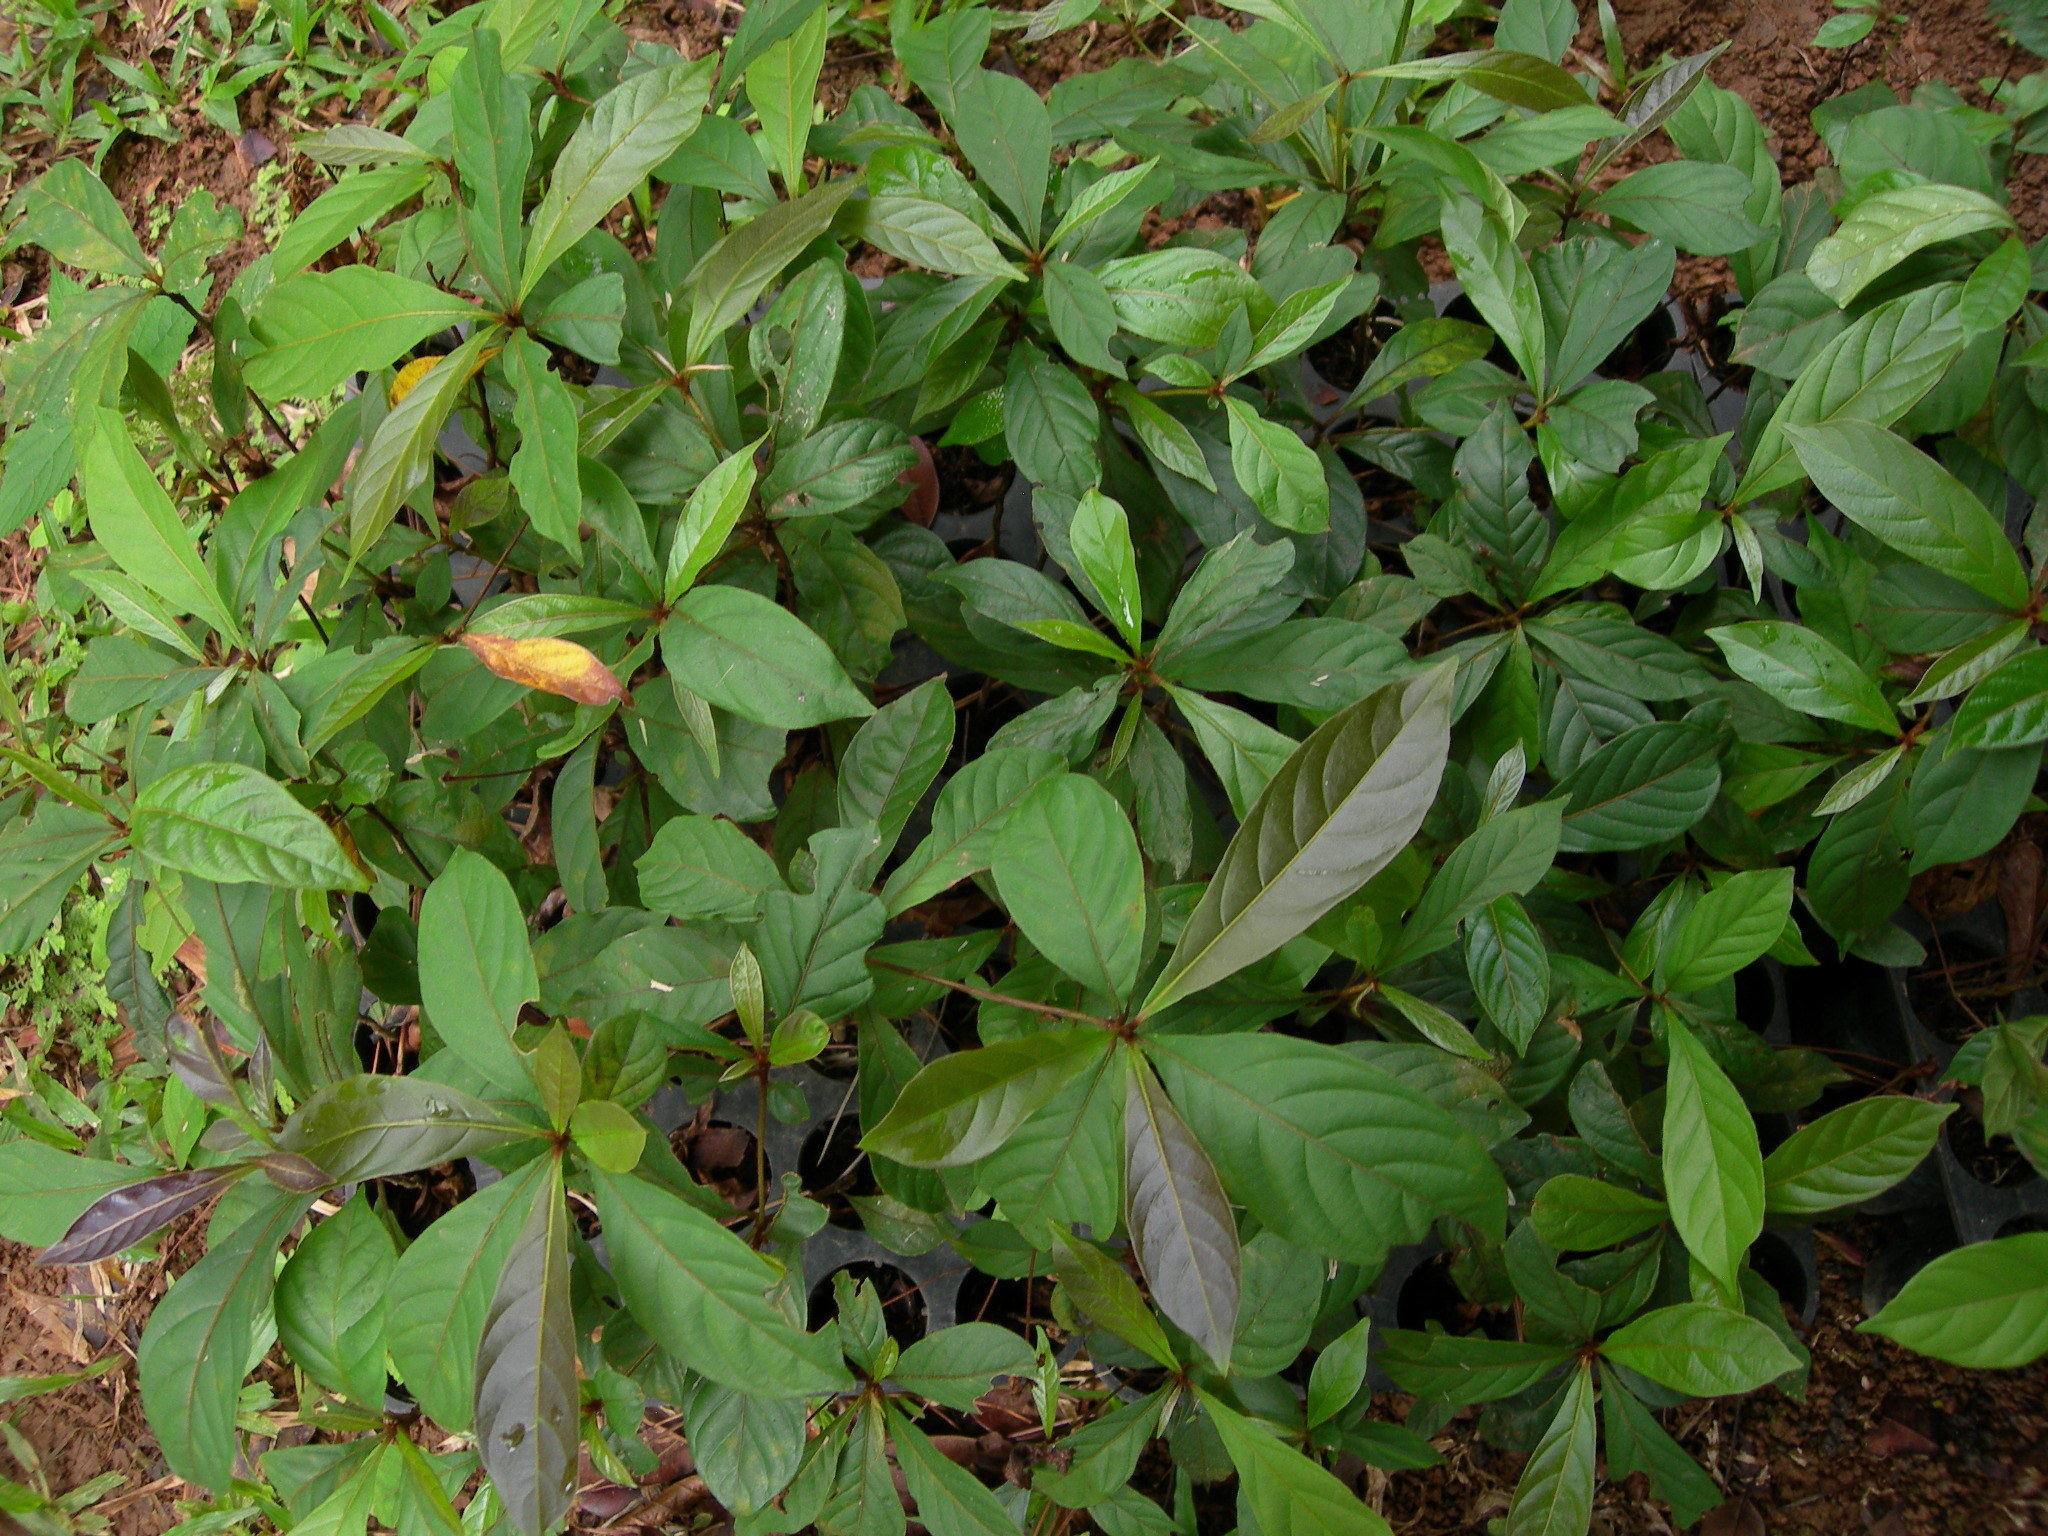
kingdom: Plantae
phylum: Tracheophyta
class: Magnoliopsida
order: Myrtales
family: Combretaceae
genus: Terminalia
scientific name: Terminalia amazonica
